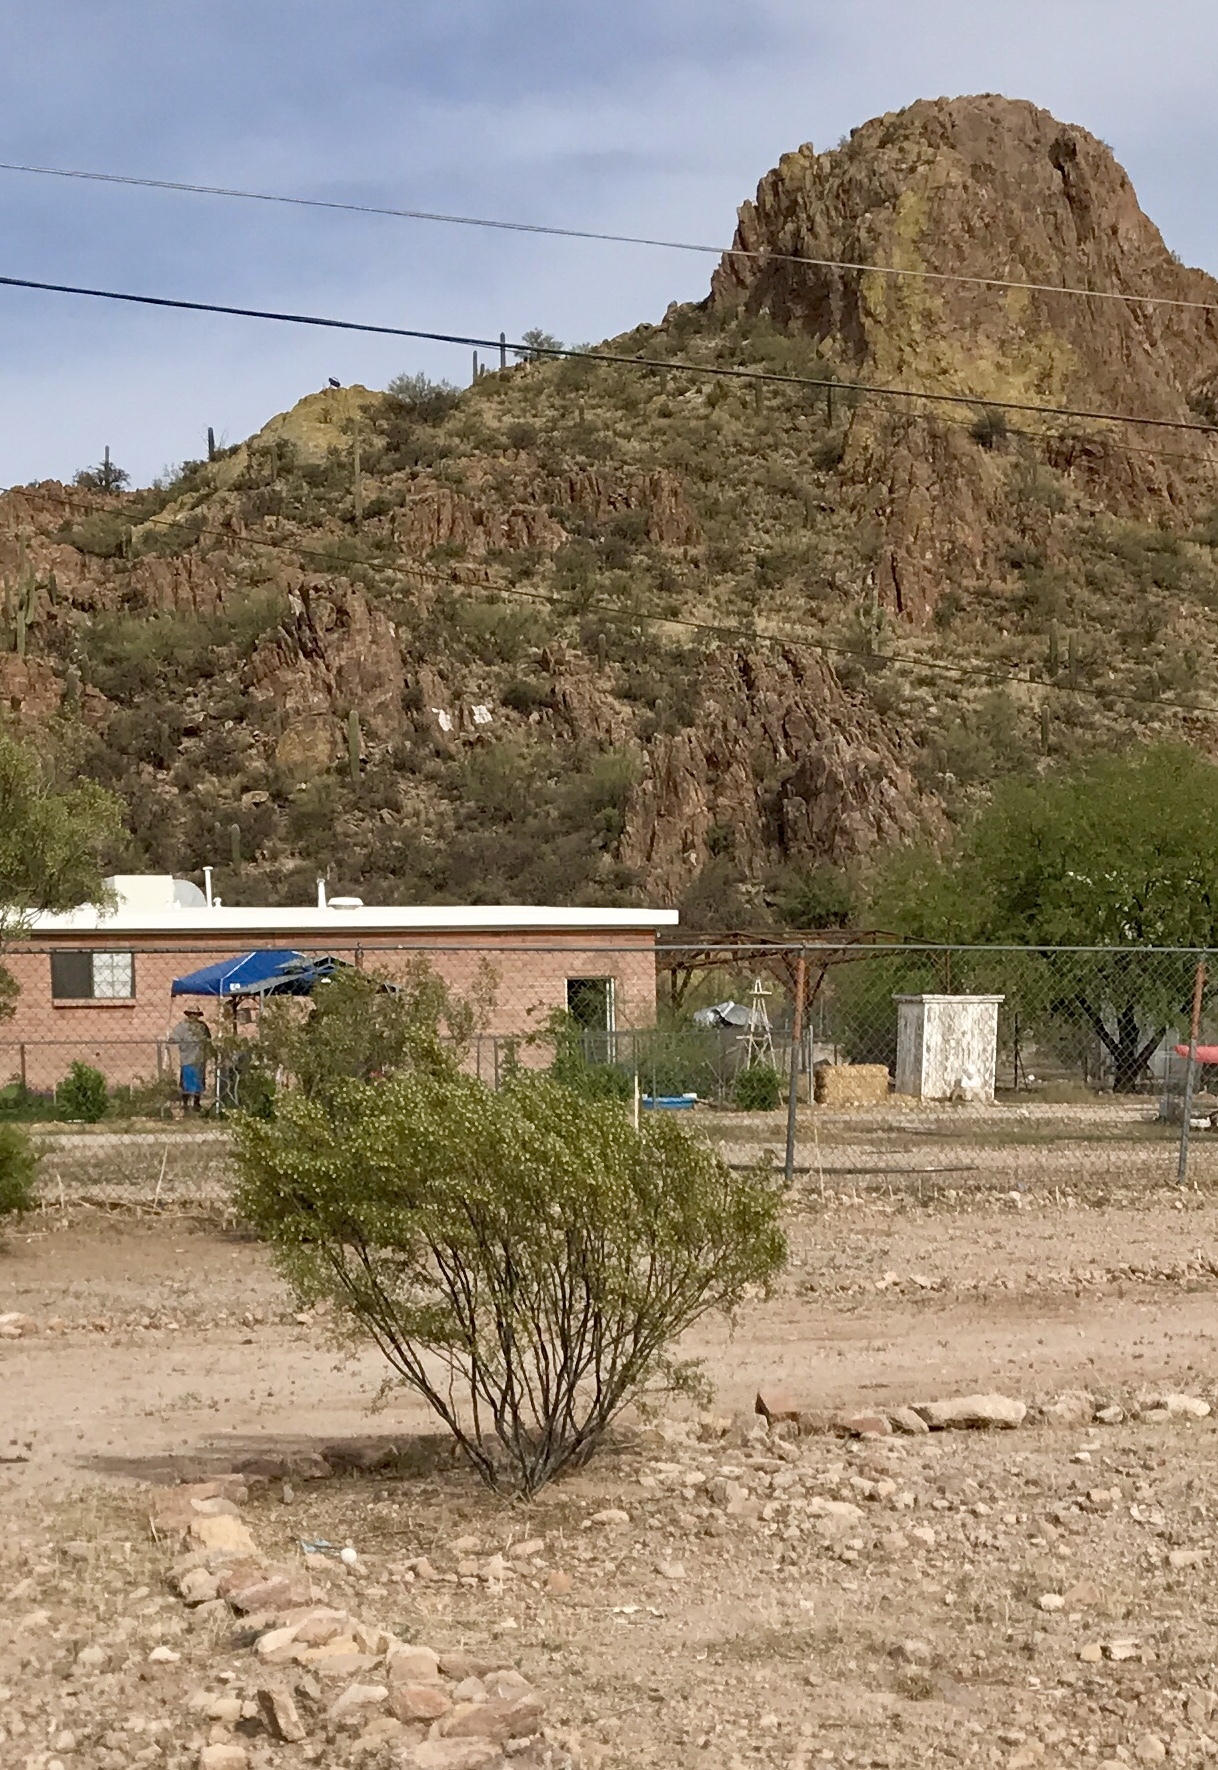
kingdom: Plantae
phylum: Tracheophyta
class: Magnoliopsida
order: Zygophyllales
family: Zygophyllaceae
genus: Larrea
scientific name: Larrea tridentata
